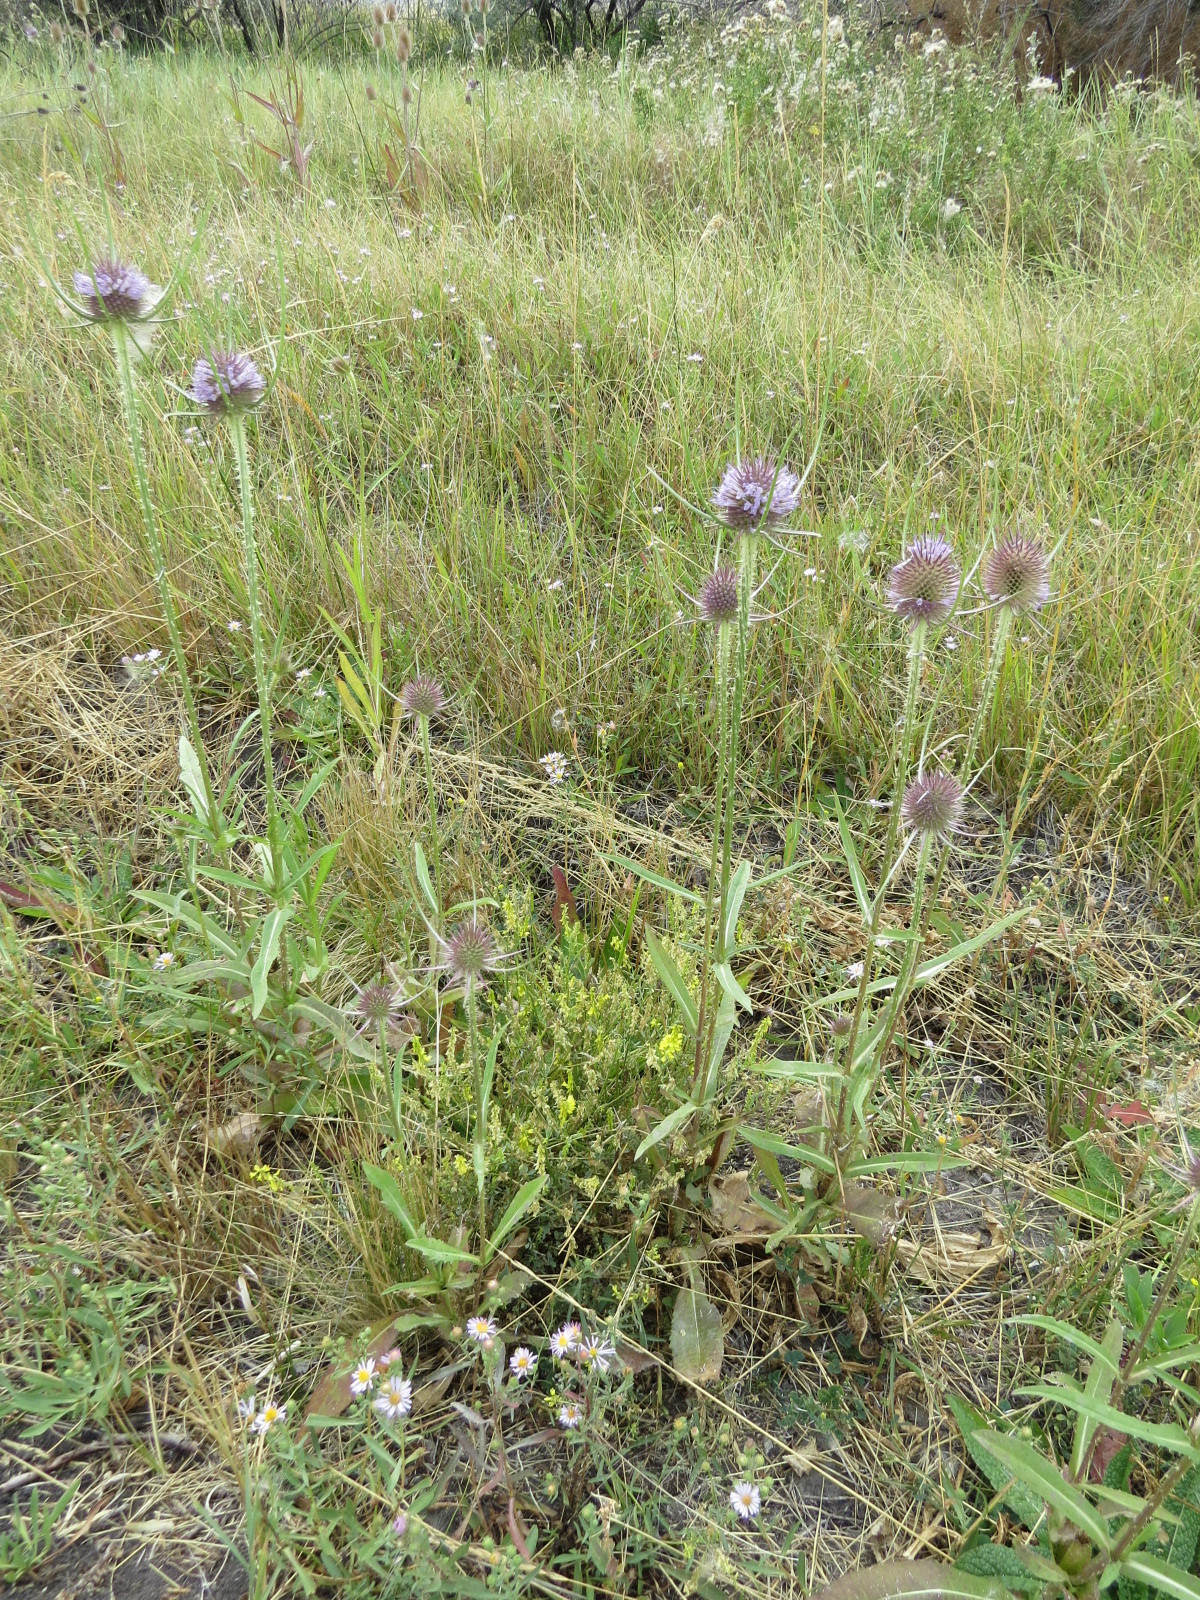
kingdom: Plantae
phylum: Tracheophyta
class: Magnoliopsida
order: Dipsacales
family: Caprifoliaceae
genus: Dipsacus
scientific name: Dipsacus fullonum
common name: Teasel
